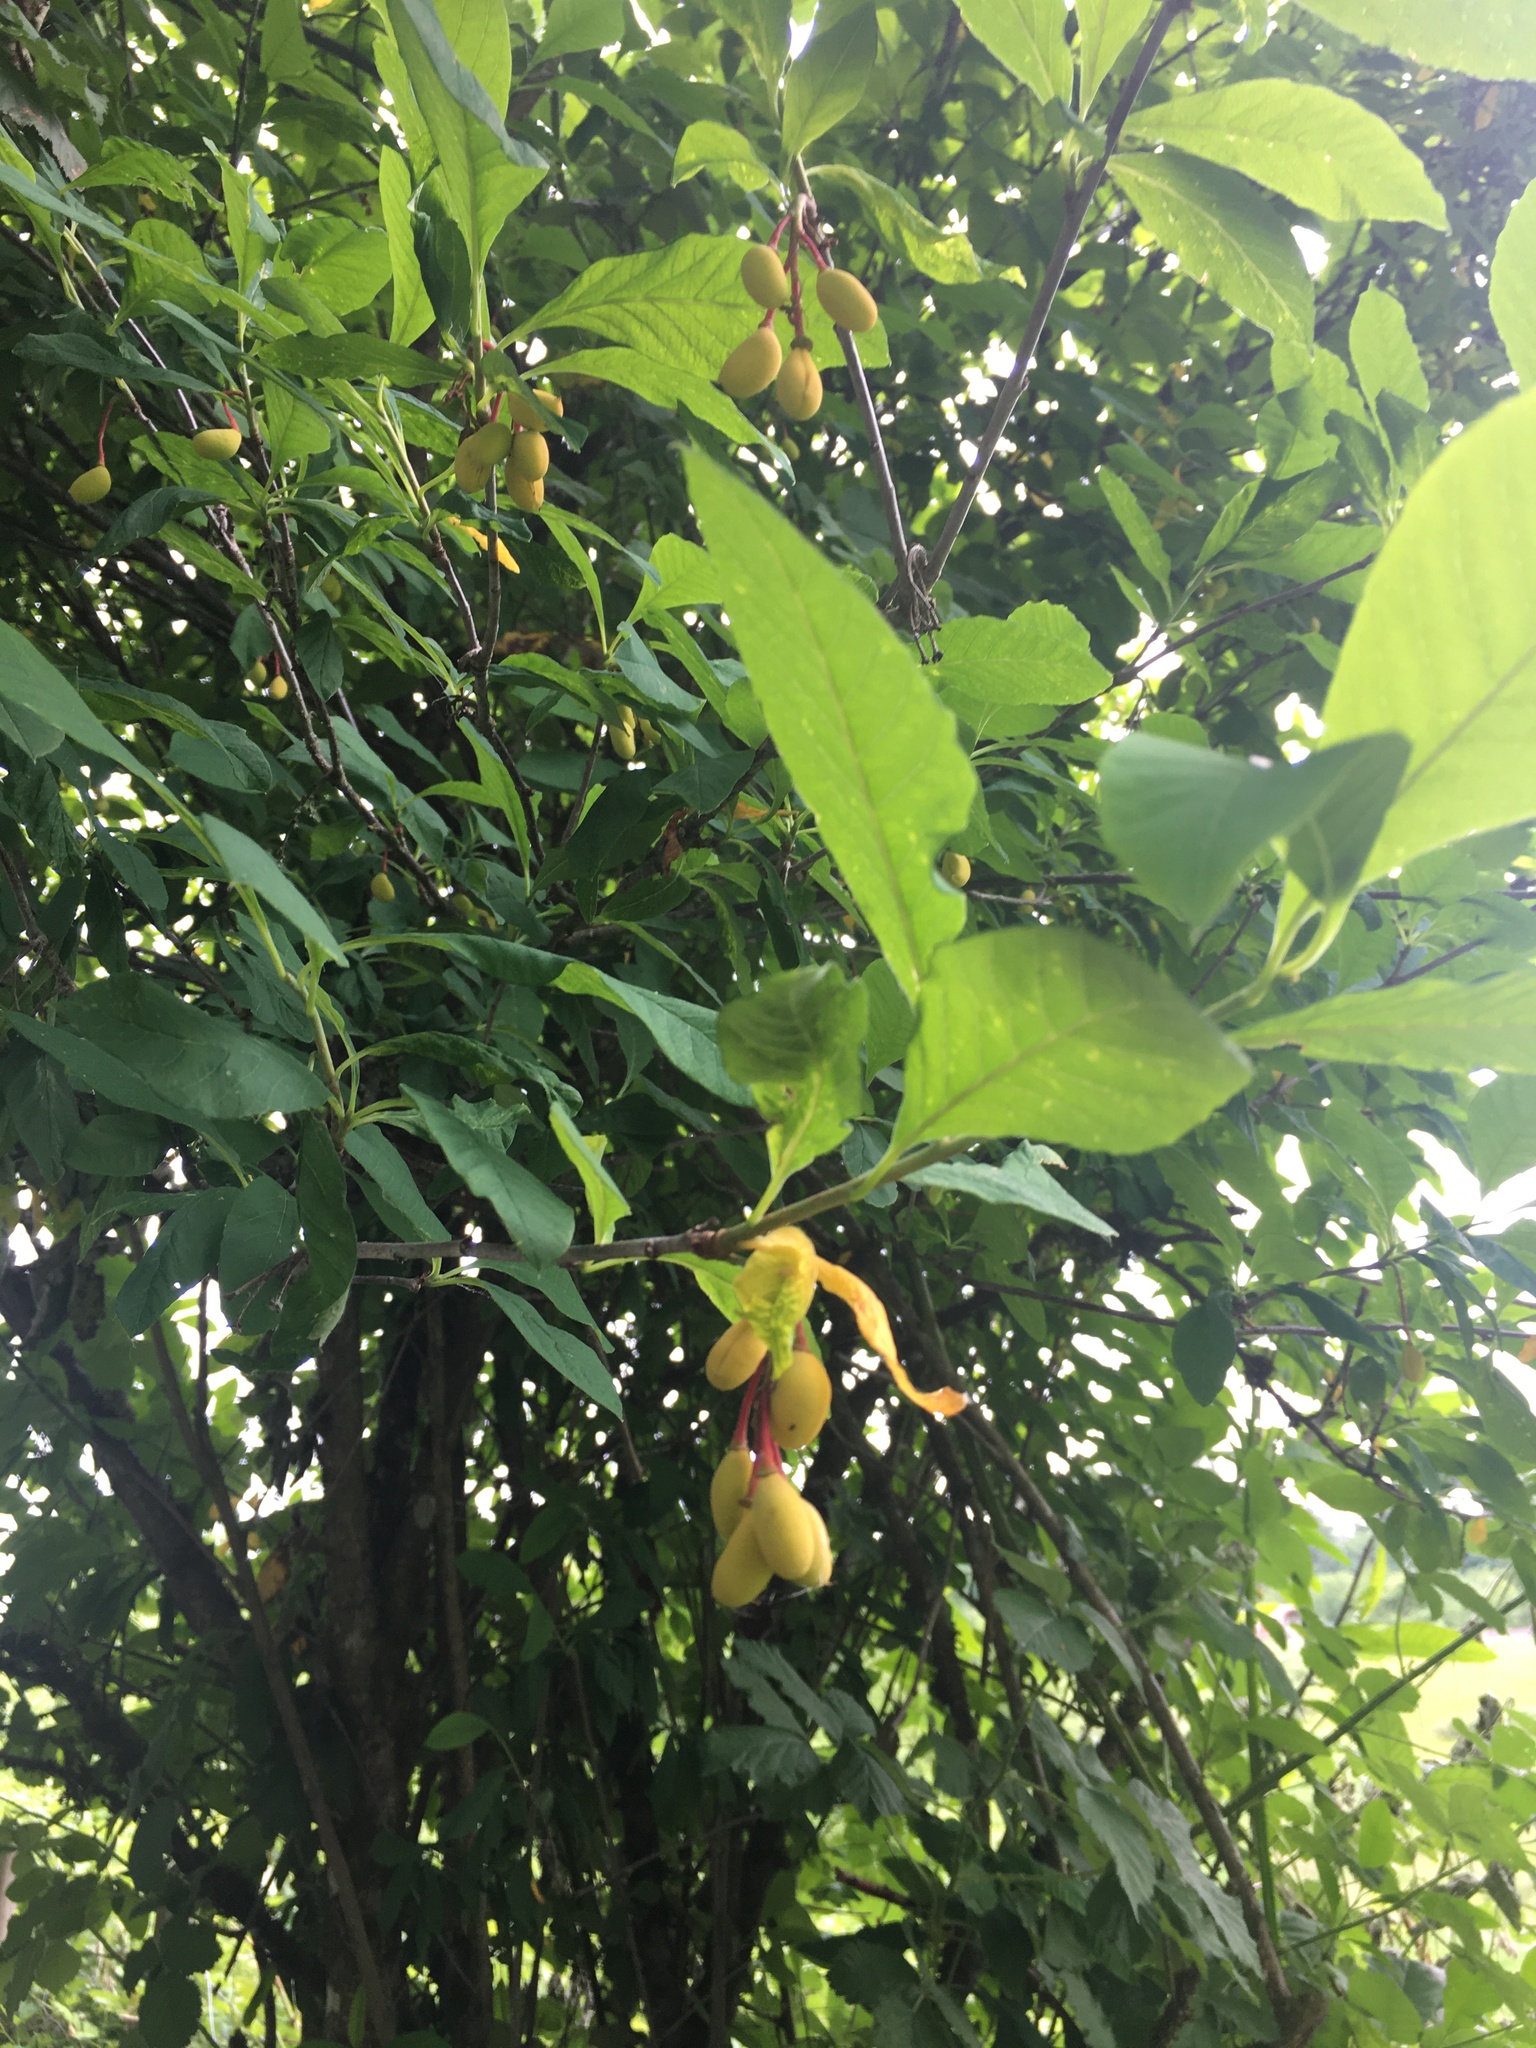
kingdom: Plantae
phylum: Tracheophyta
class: Magnoliopsida
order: Rosales
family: Rosaceae
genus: Oemleria
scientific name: Oemleria cerasiformis
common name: Osoberry
